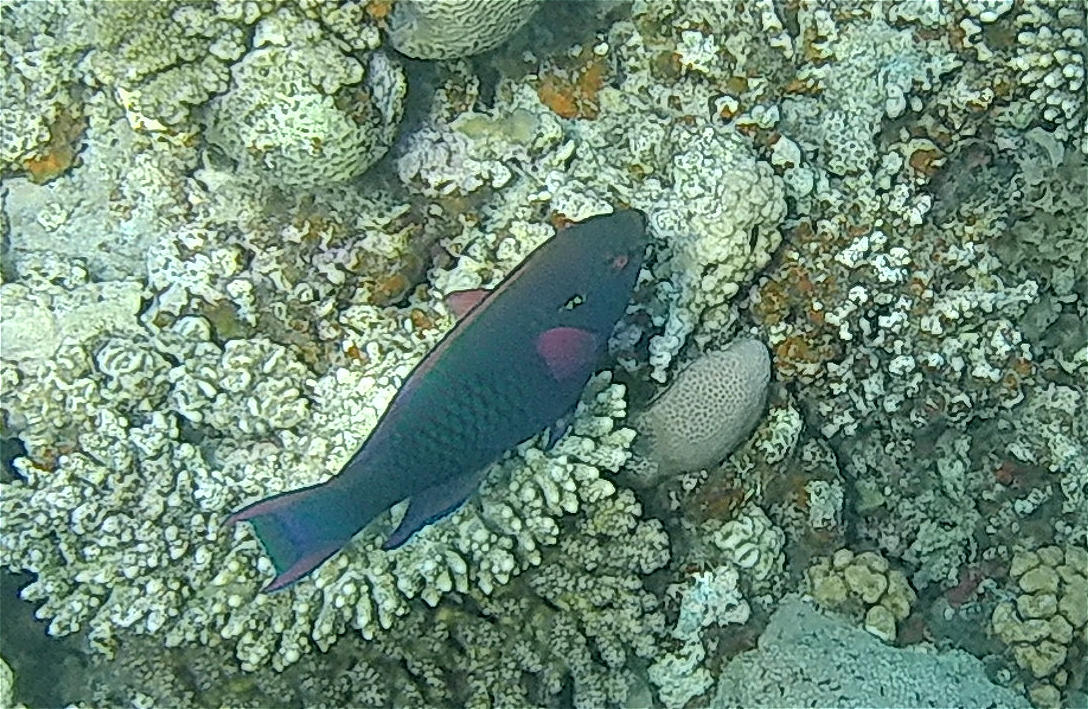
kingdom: Animalia
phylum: Chordata
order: Perciformes
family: Scaridae
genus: Scarus
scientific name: Scarus niger
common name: Dusky parrotfish
